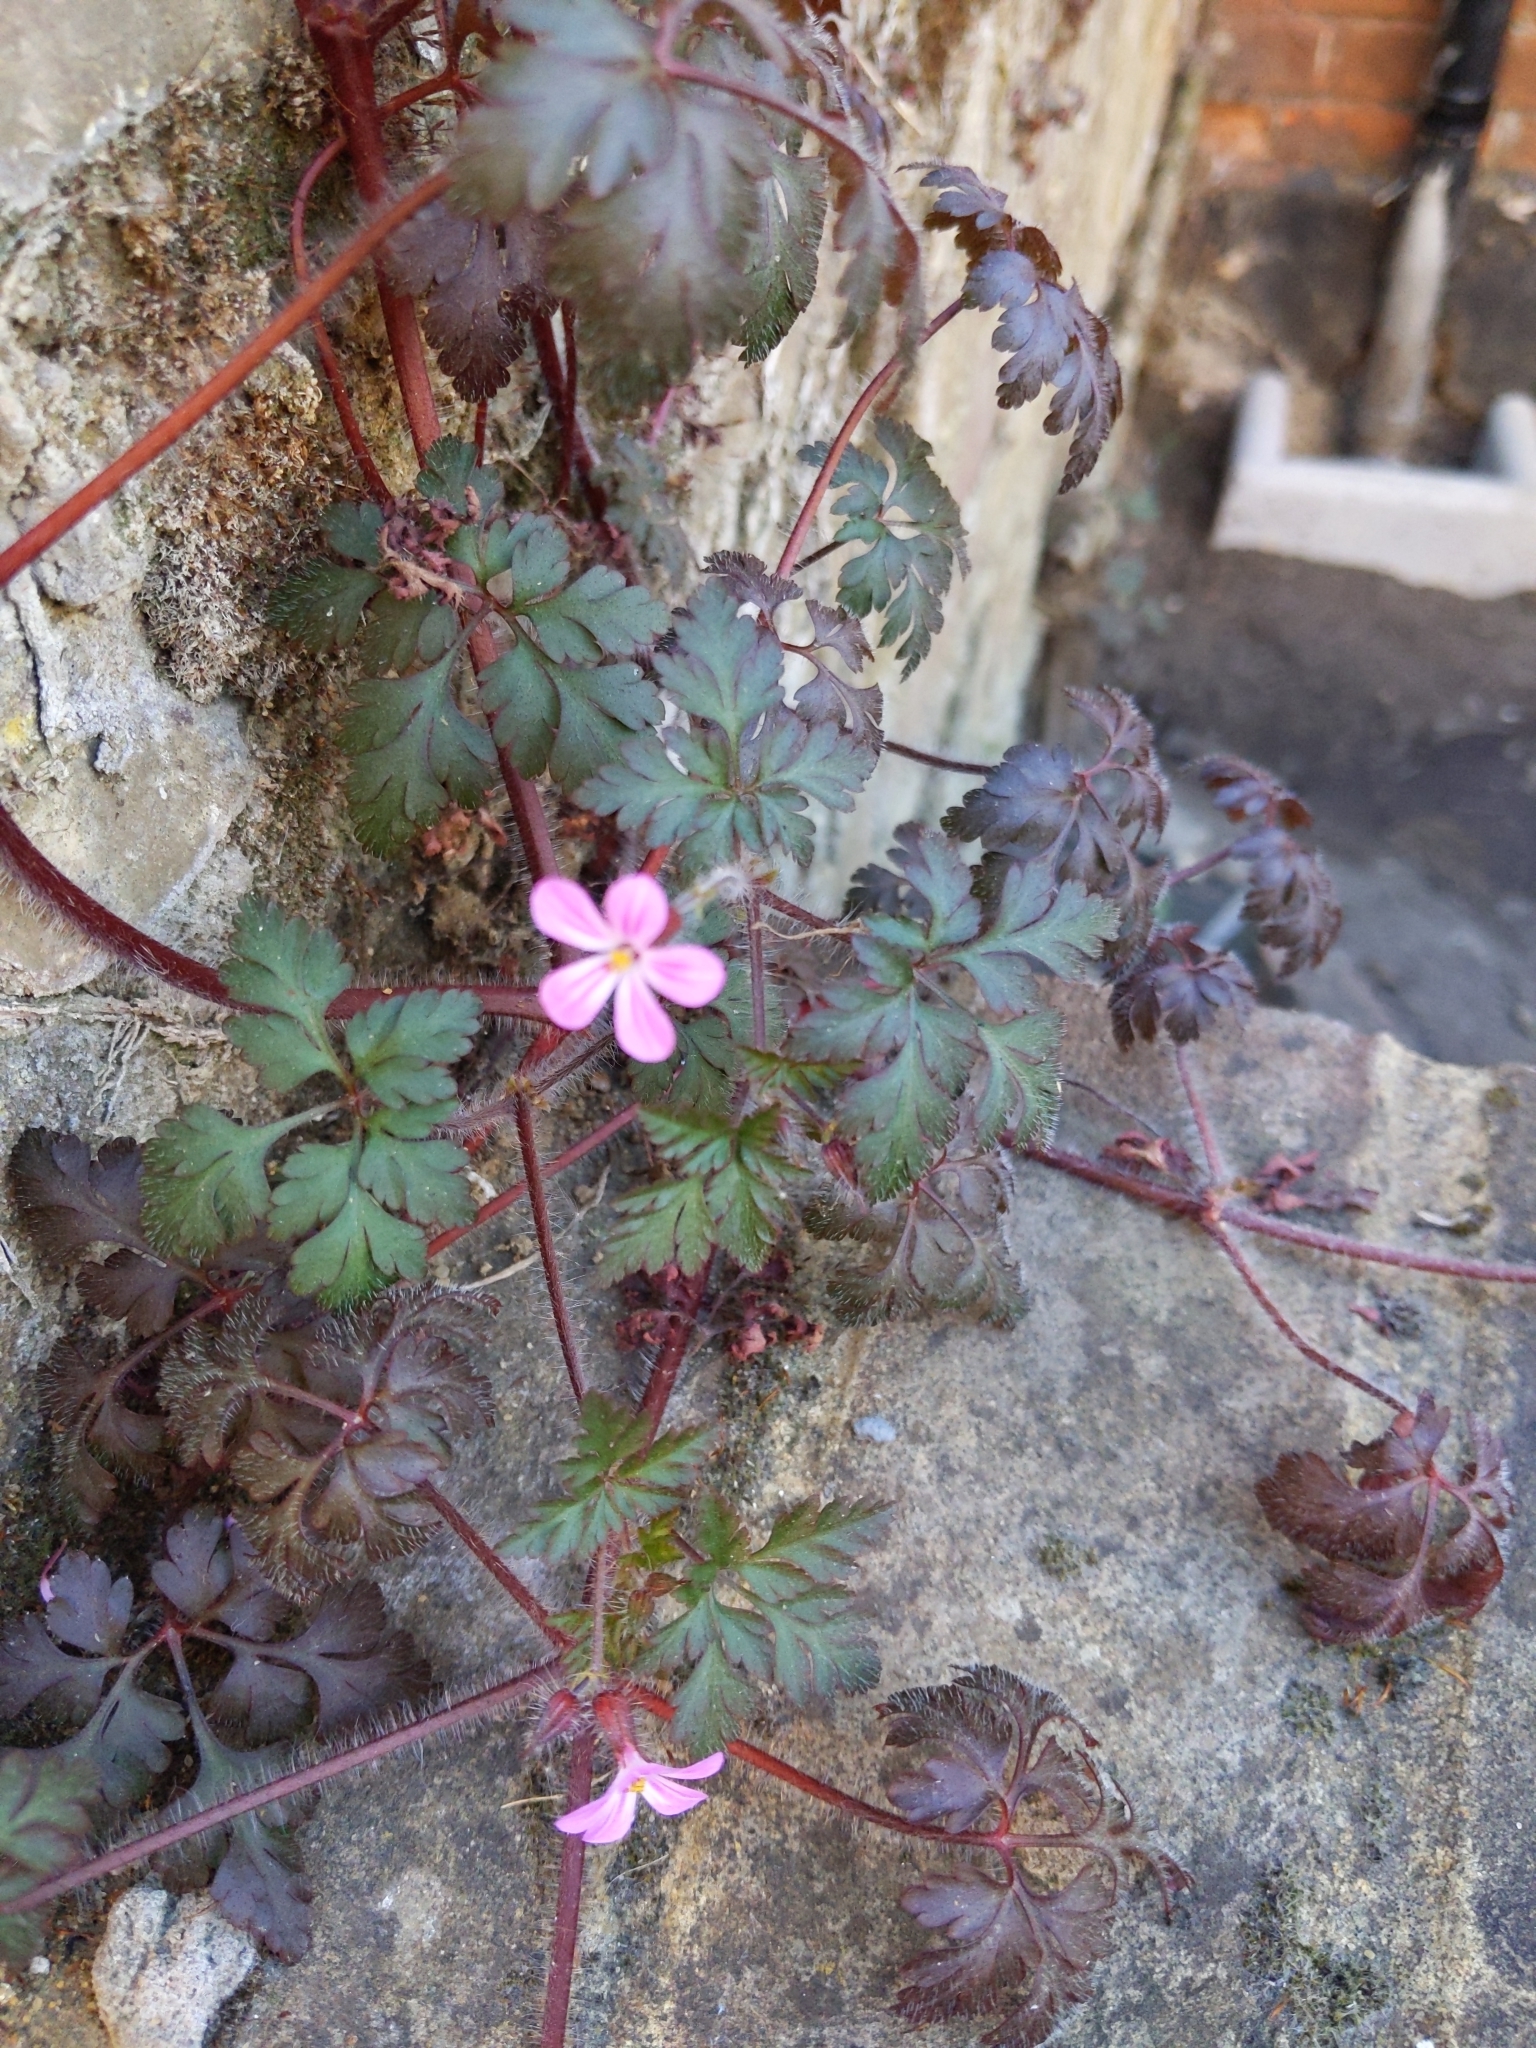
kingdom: Plantae
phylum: Tracheophyta
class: Magnoliopsida
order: Geraniales
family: Geraniaceae
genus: Geranium
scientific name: Geranium robertianum
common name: Herb-robert
